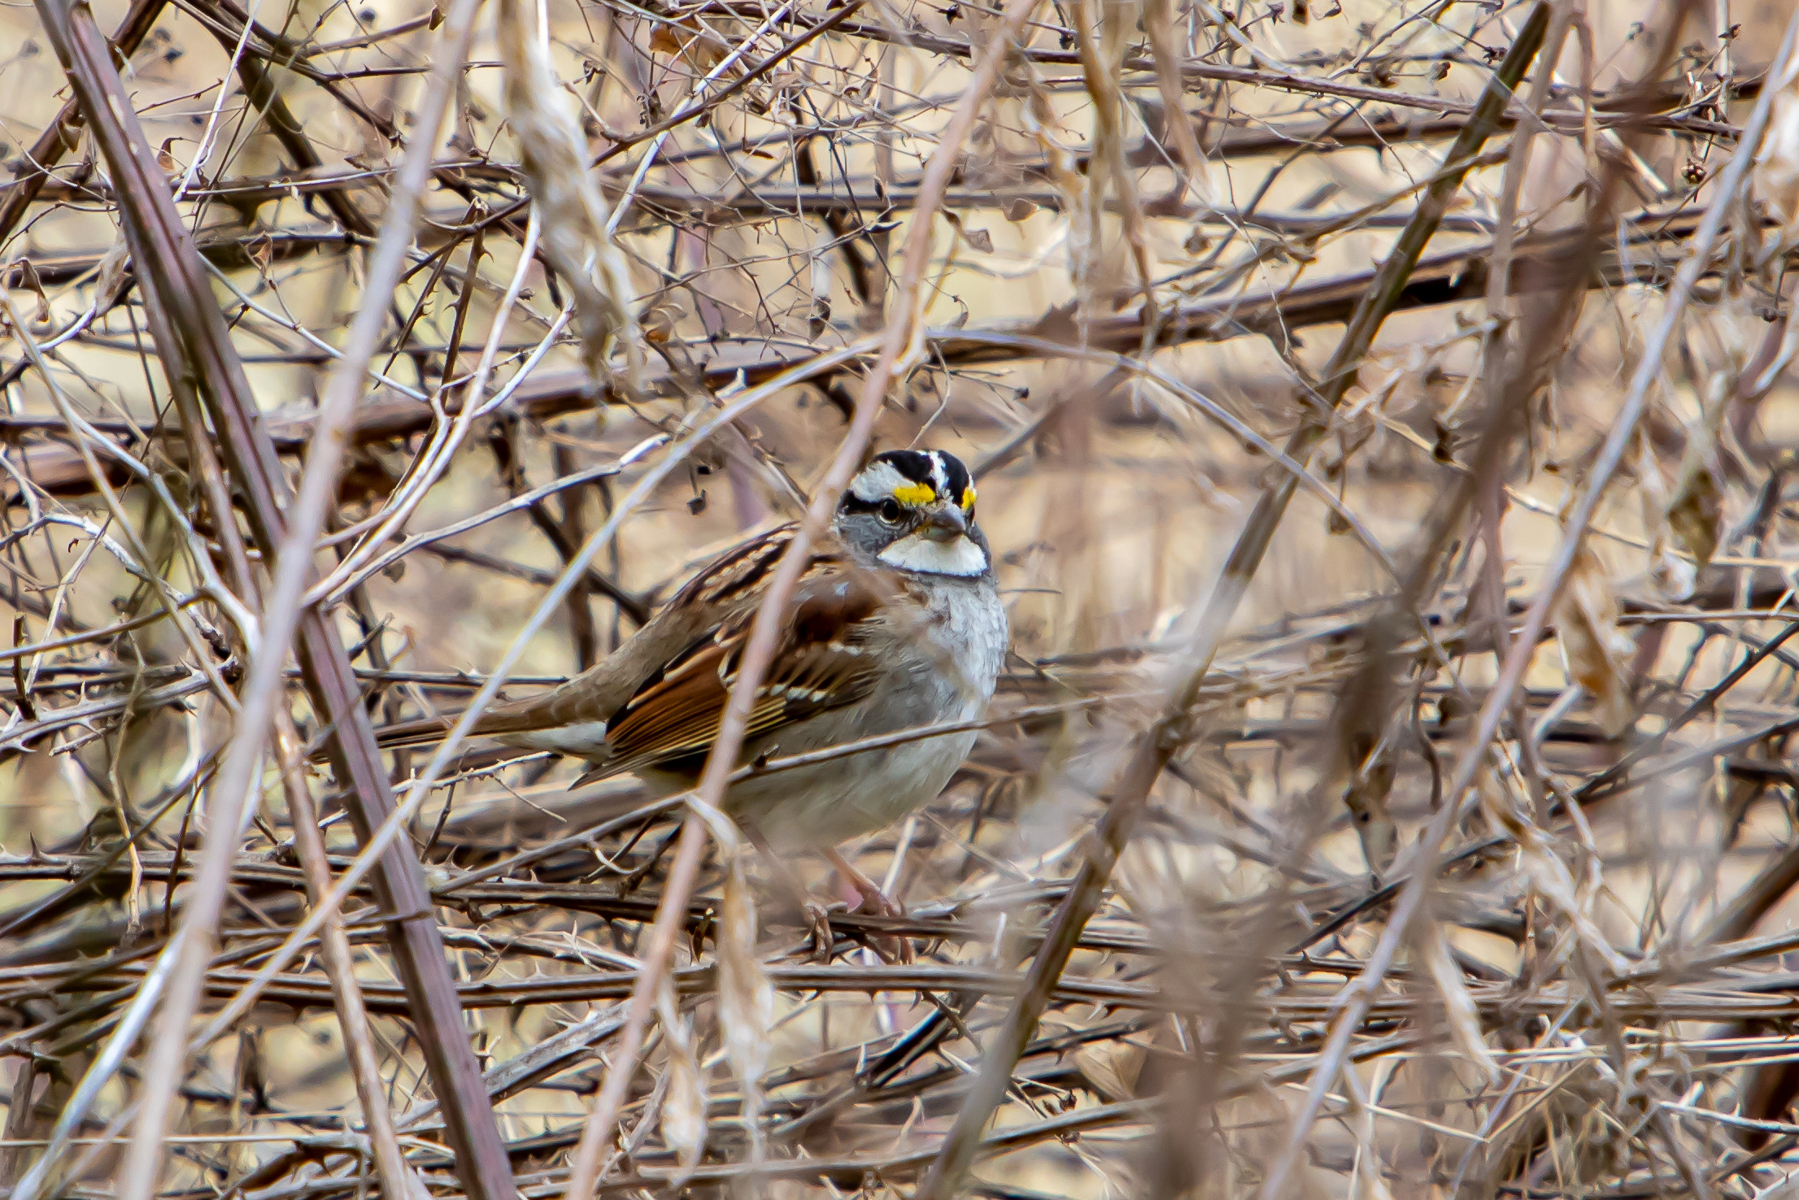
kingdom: Animalia
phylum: Chordata
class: Aves
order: Passeriformes
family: Passerellidae
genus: Zonotrichia
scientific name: Zonotrichia albicollis
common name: White-throated sparrow
